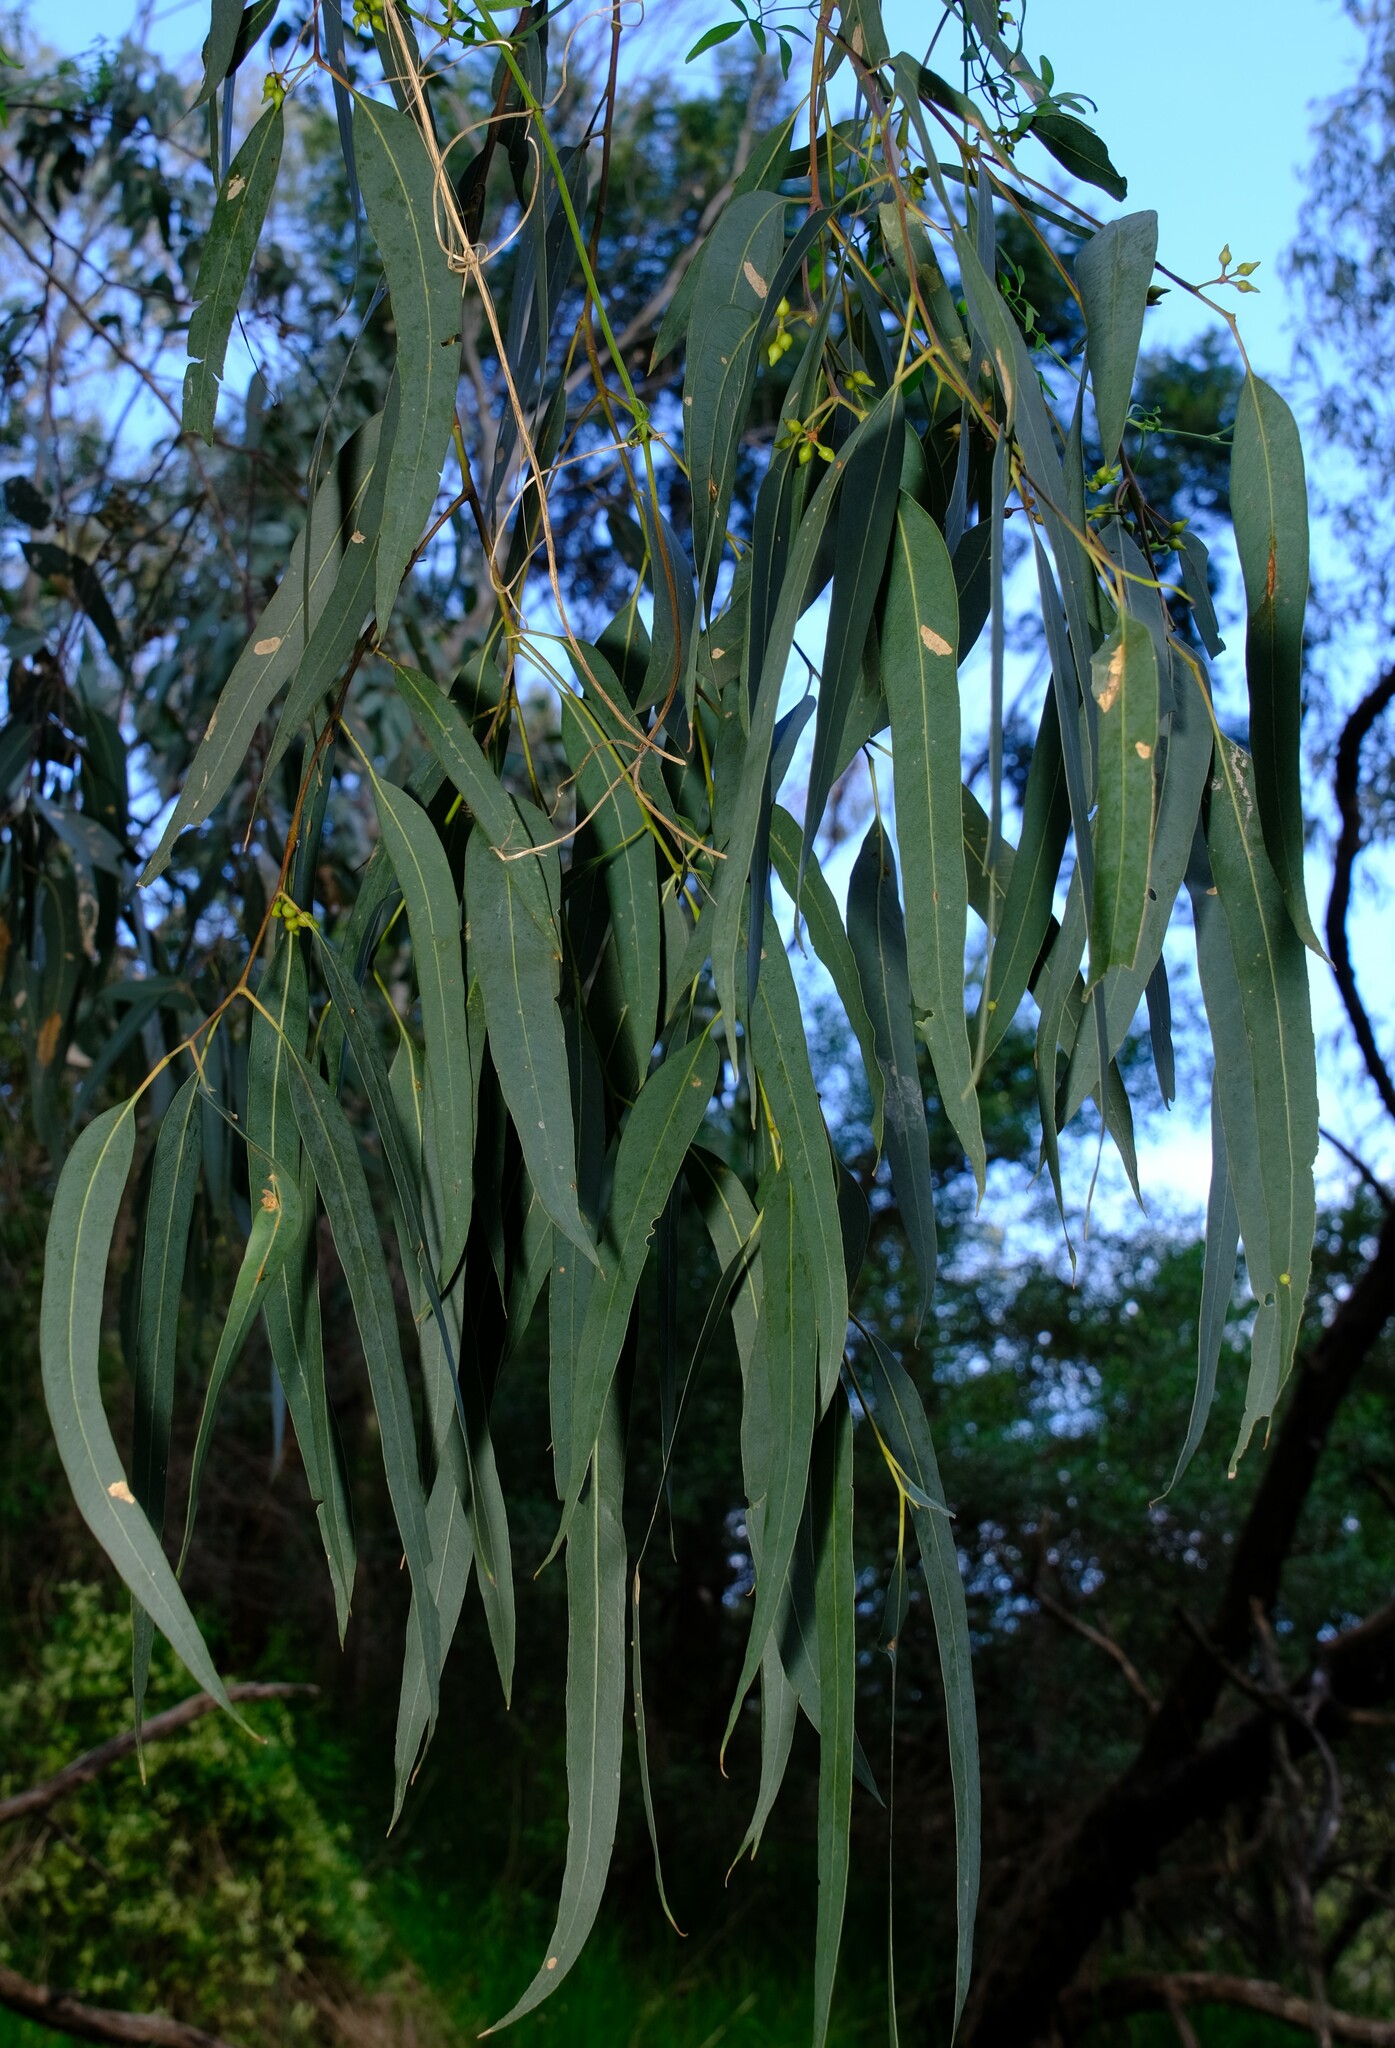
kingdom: Plantae
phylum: Tracheophyta
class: Magnoliopsida
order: Myrtales
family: Myrtaceae
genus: Eucalyptus
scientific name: Eucalyptus camaldulensis
